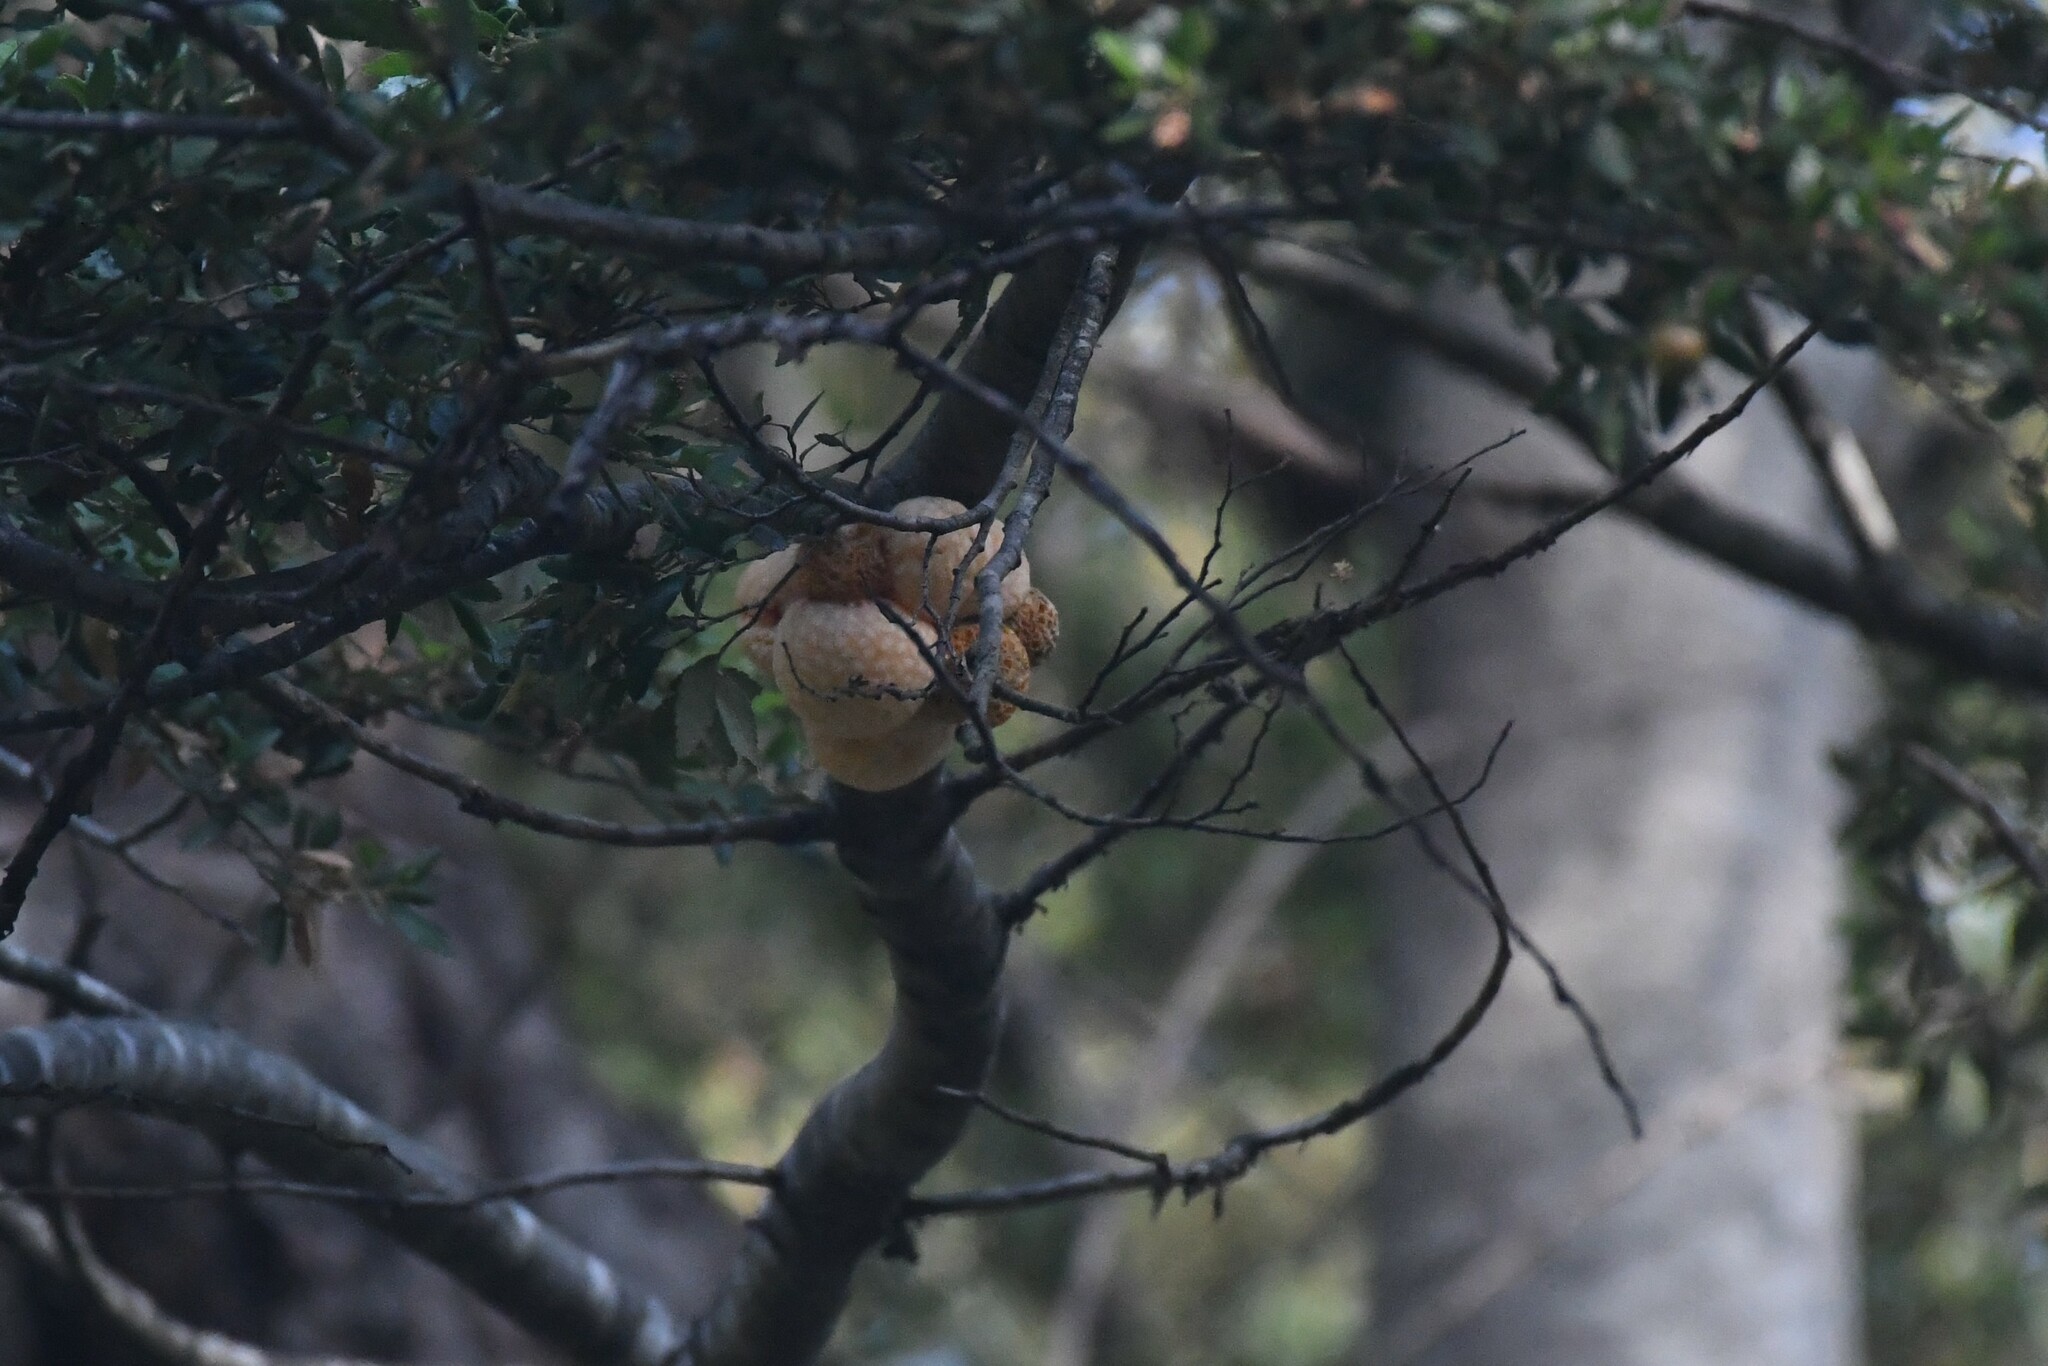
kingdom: Fungi
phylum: Ascomycota
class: Leotiomycetes
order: Cyttariales
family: Cyttariaceae
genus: Cyttaria
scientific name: Cyttaria hariotii
